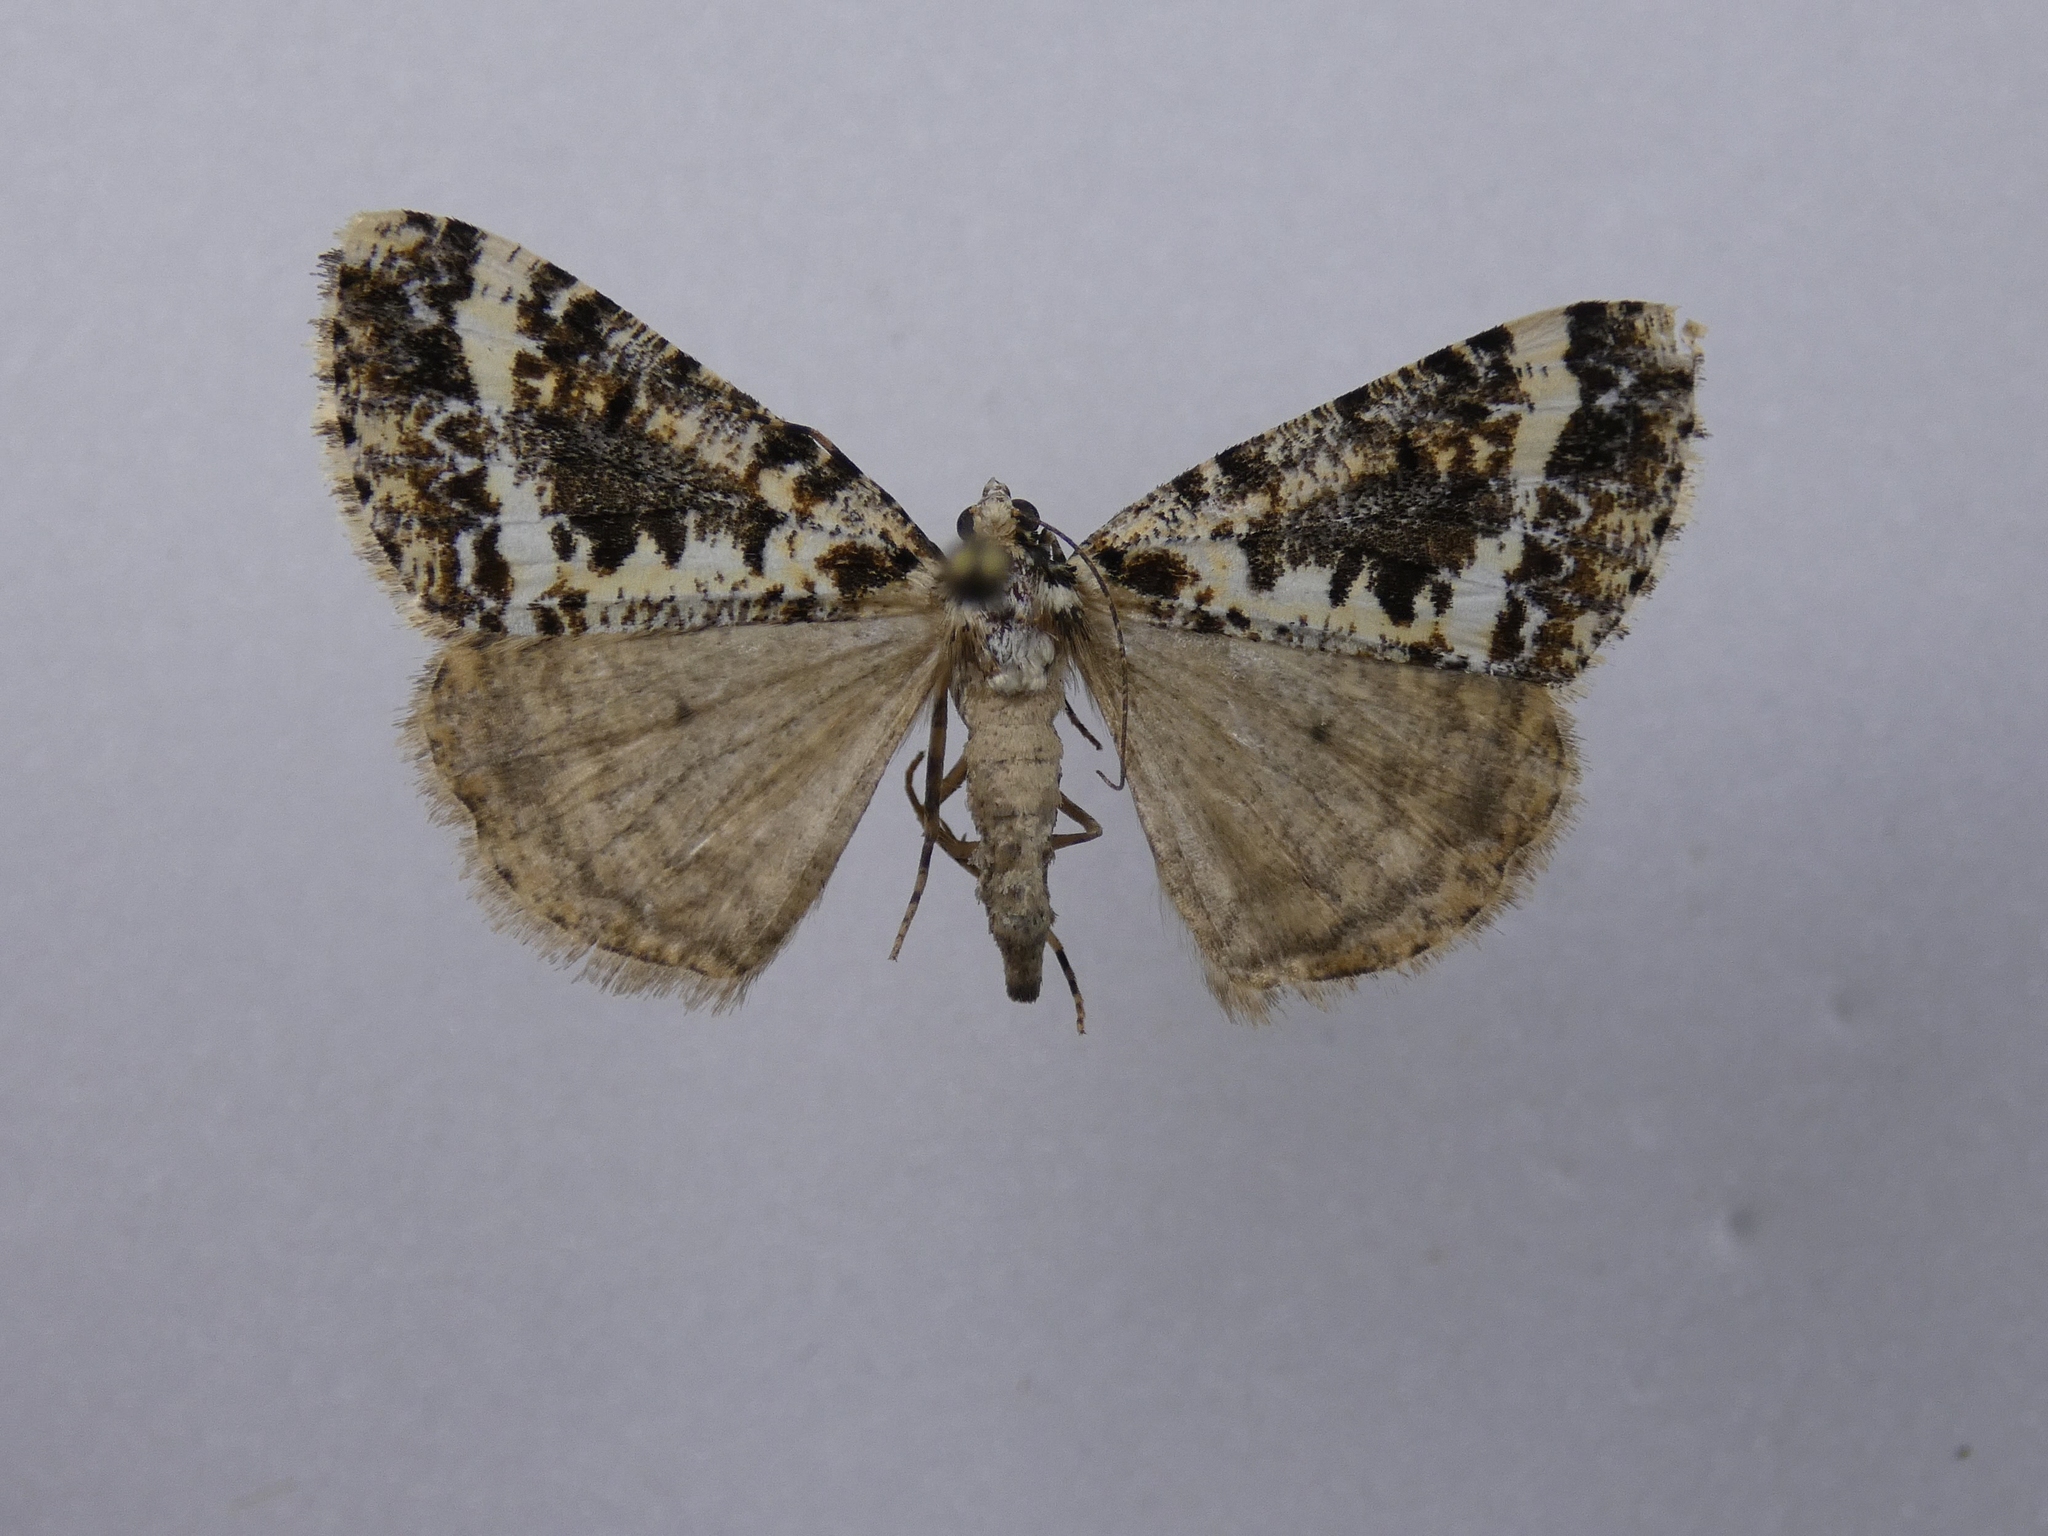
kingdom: Animalia
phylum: Arthropoda
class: Insecta
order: Lepidoptera
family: Geometridae
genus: Pseudocoremia
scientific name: Pseudocoremia leucelaea
